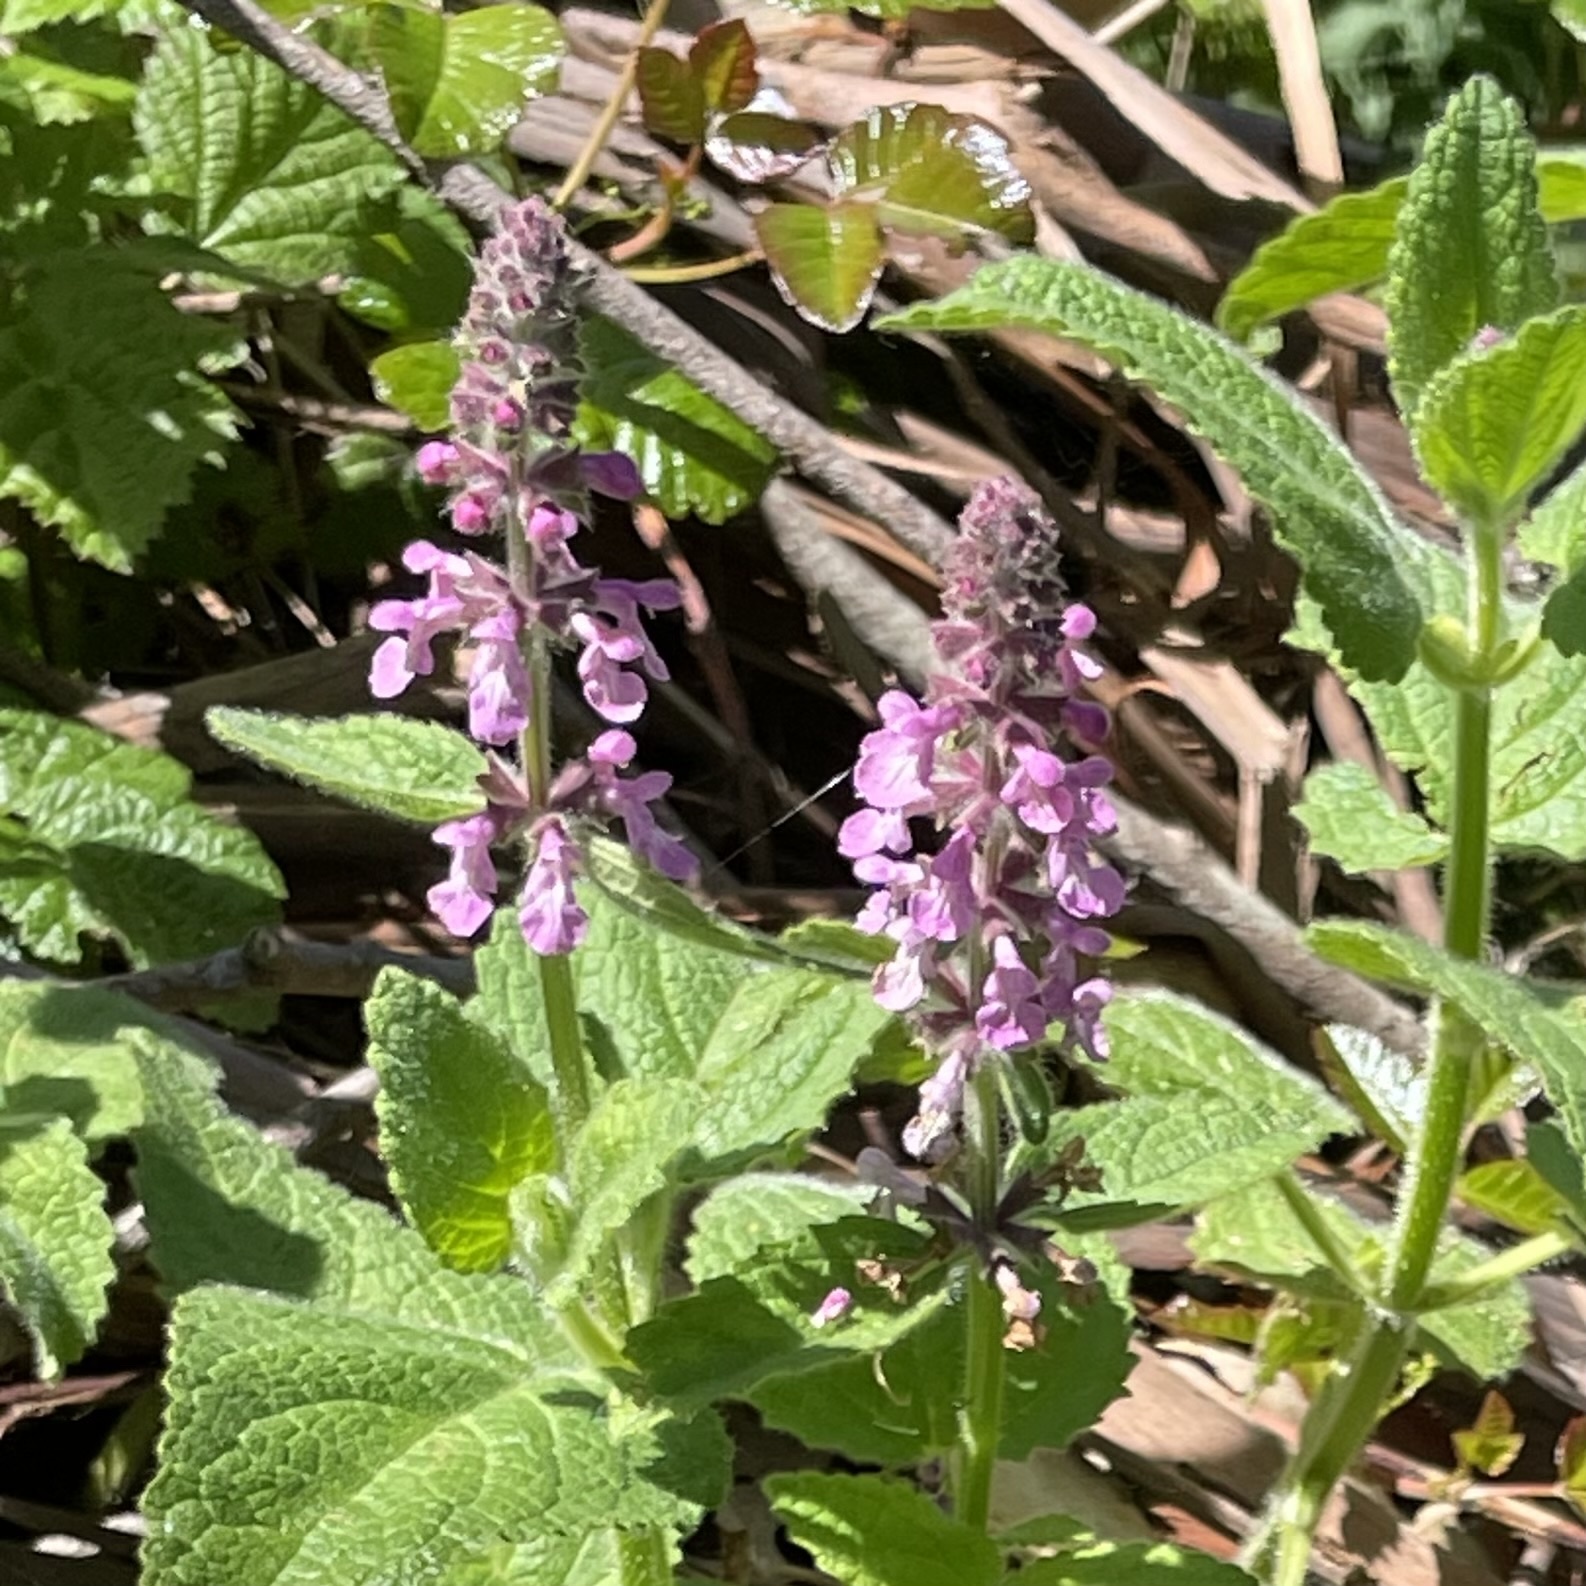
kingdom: Plantae
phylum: Tracheophyta
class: Magnoliopsida
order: Lamiales
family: Lamiaceae
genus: Stachys
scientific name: Stachys bullata
